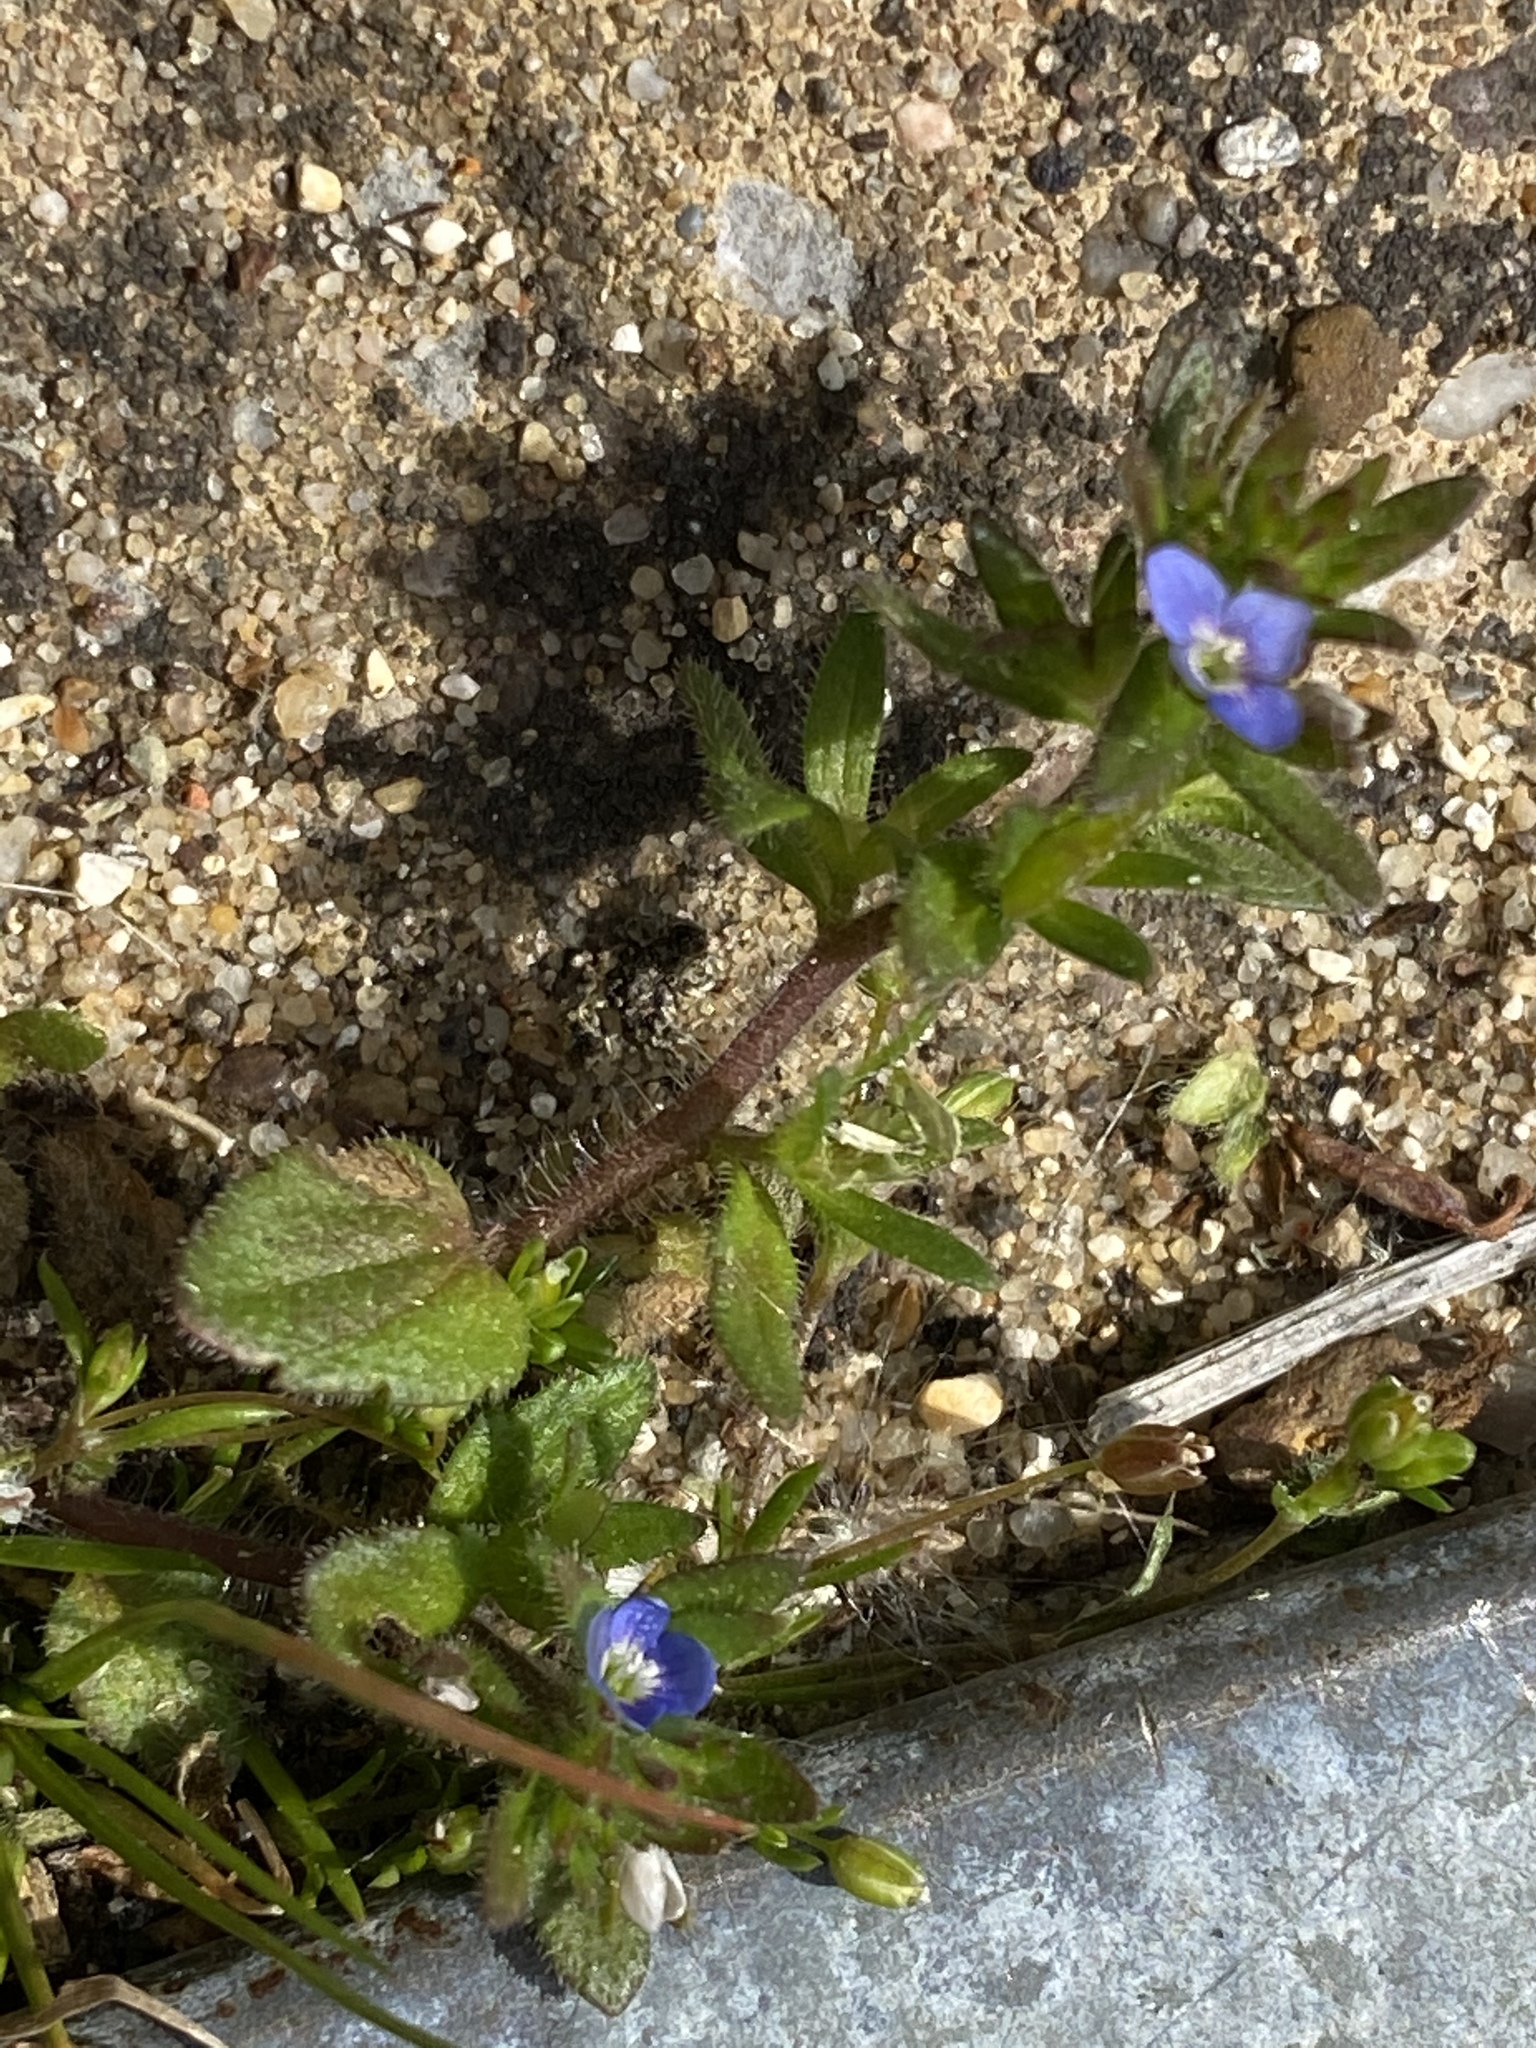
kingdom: Plantae
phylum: Tracheophyta
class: Magnoliopsida
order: Lamiales
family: Plantaginaceae
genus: Veronica
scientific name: Veronica arvensis
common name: Corn speedwell
